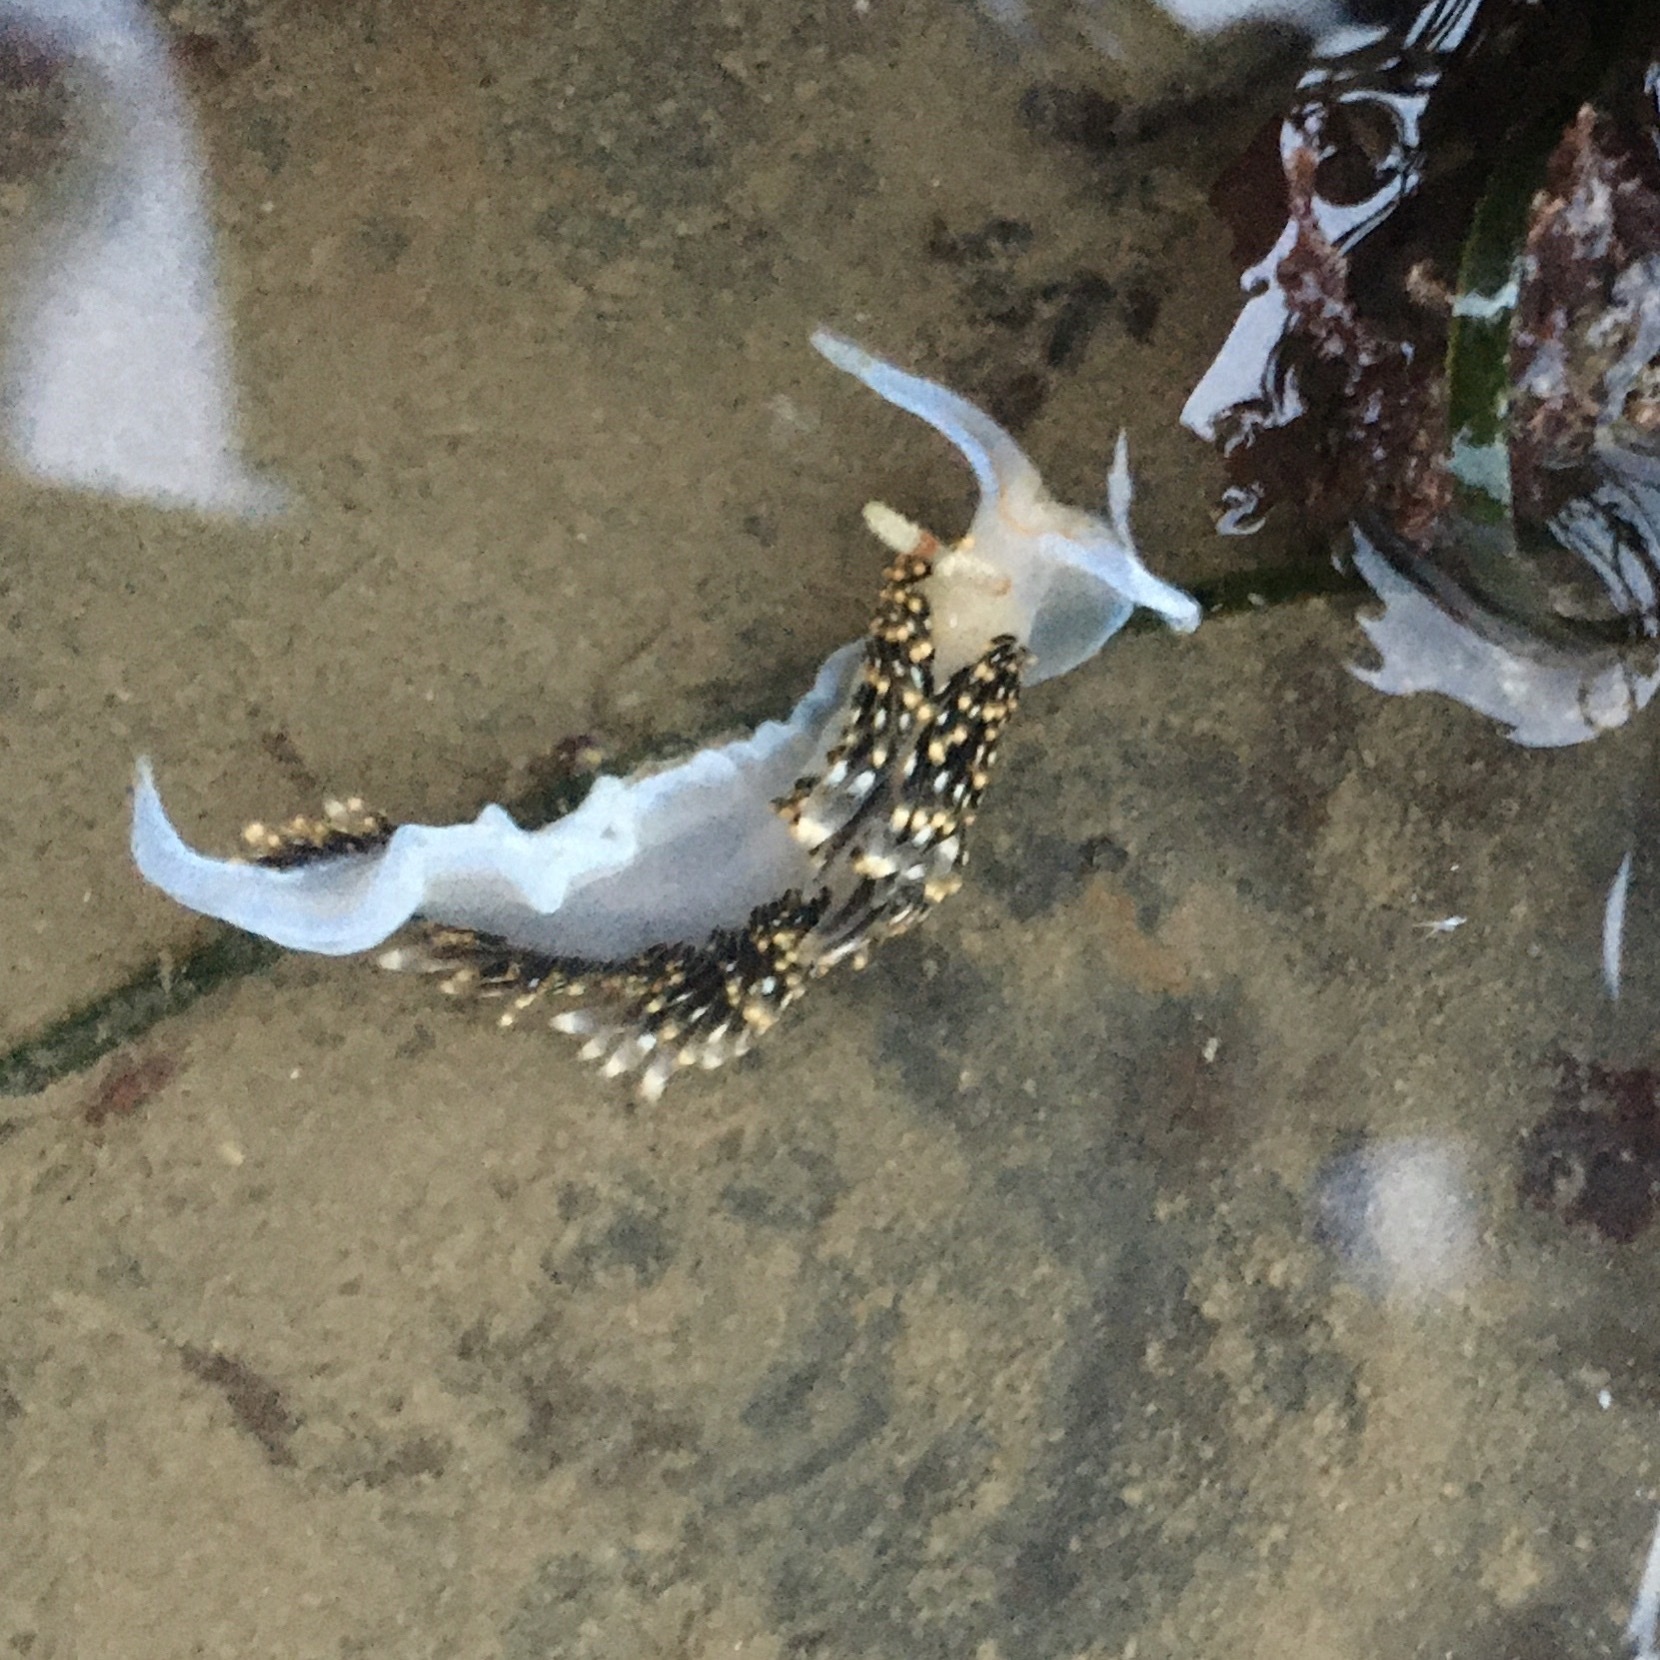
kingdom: Animalia
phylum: Mollusca
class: Gastropoda
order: Nudibranchia
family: Facelinidae
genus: Phidiana
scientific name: Phidiana hiltoni
